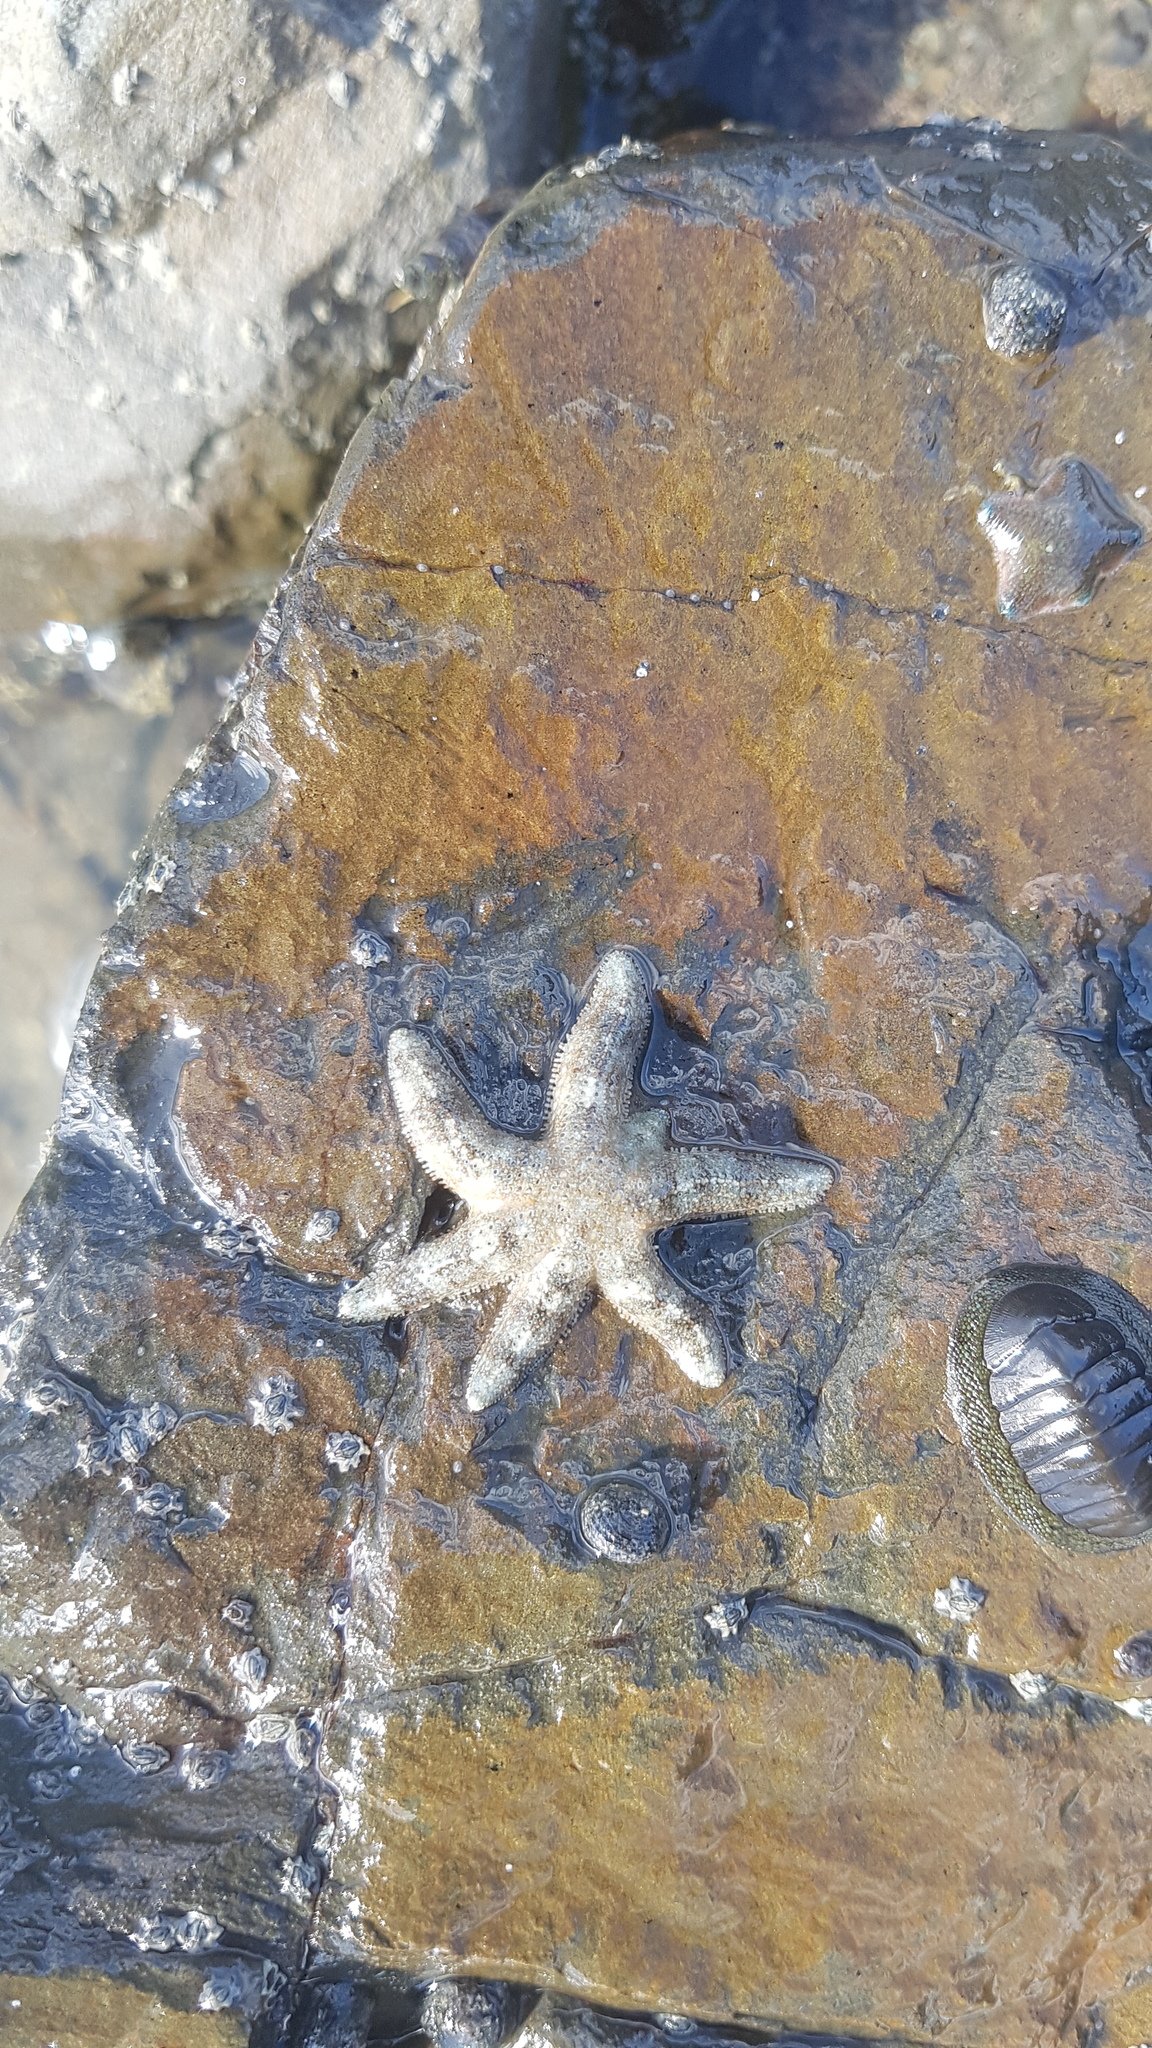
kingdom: Animalia
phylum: Echinodermata
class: Asteroidea
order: Forcipulatida
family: Stichasteridae
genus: Allostichaster
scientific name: Allostichaster polyplax
